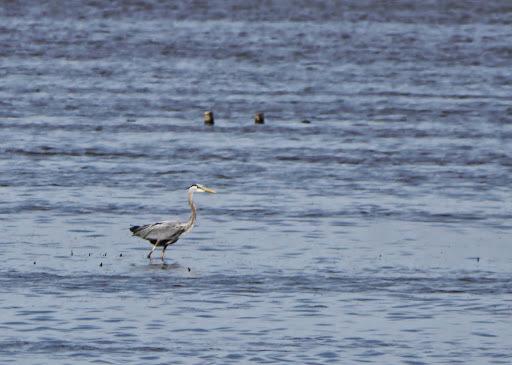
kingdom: Animalia
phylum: Chordata
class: Aves
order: Pelecaniformes
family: Ardeidae
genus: Ardea
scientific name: Ardea herodias
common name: Great blue heron
